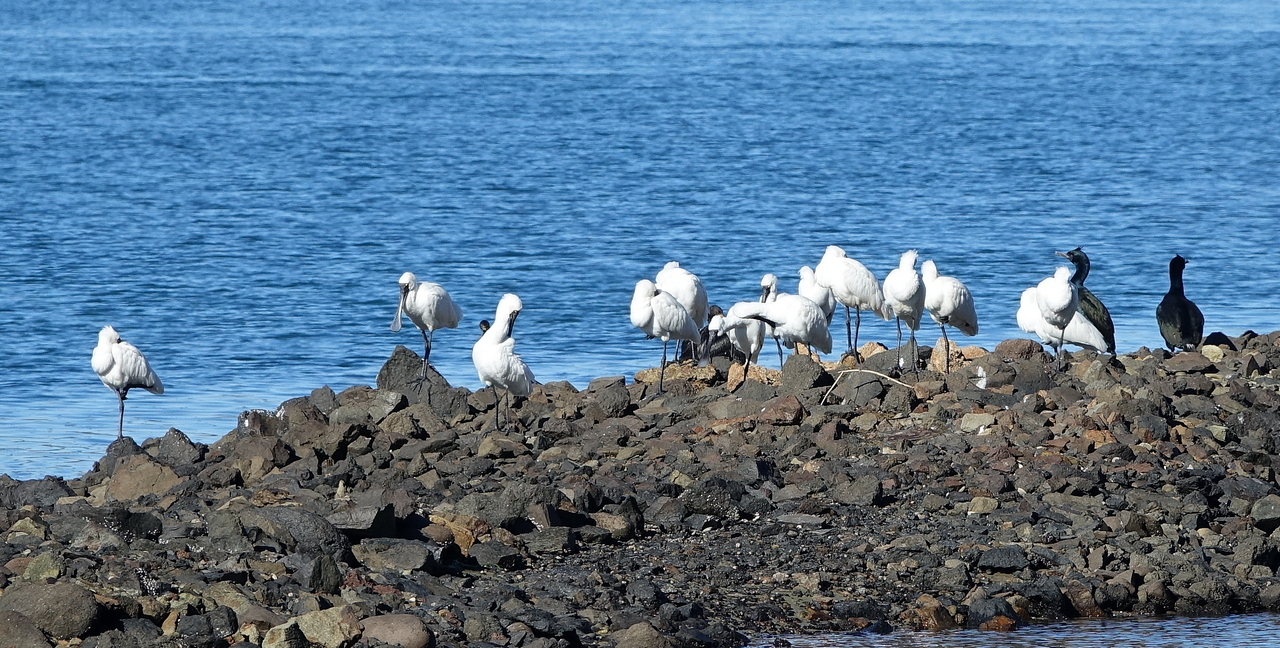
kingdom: Animalia
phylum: Chordata
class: Aves
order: Pelecaniformes
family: Threskiornithidae
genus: Platalea
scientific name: Platalea regia
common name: Royal spoonbill
